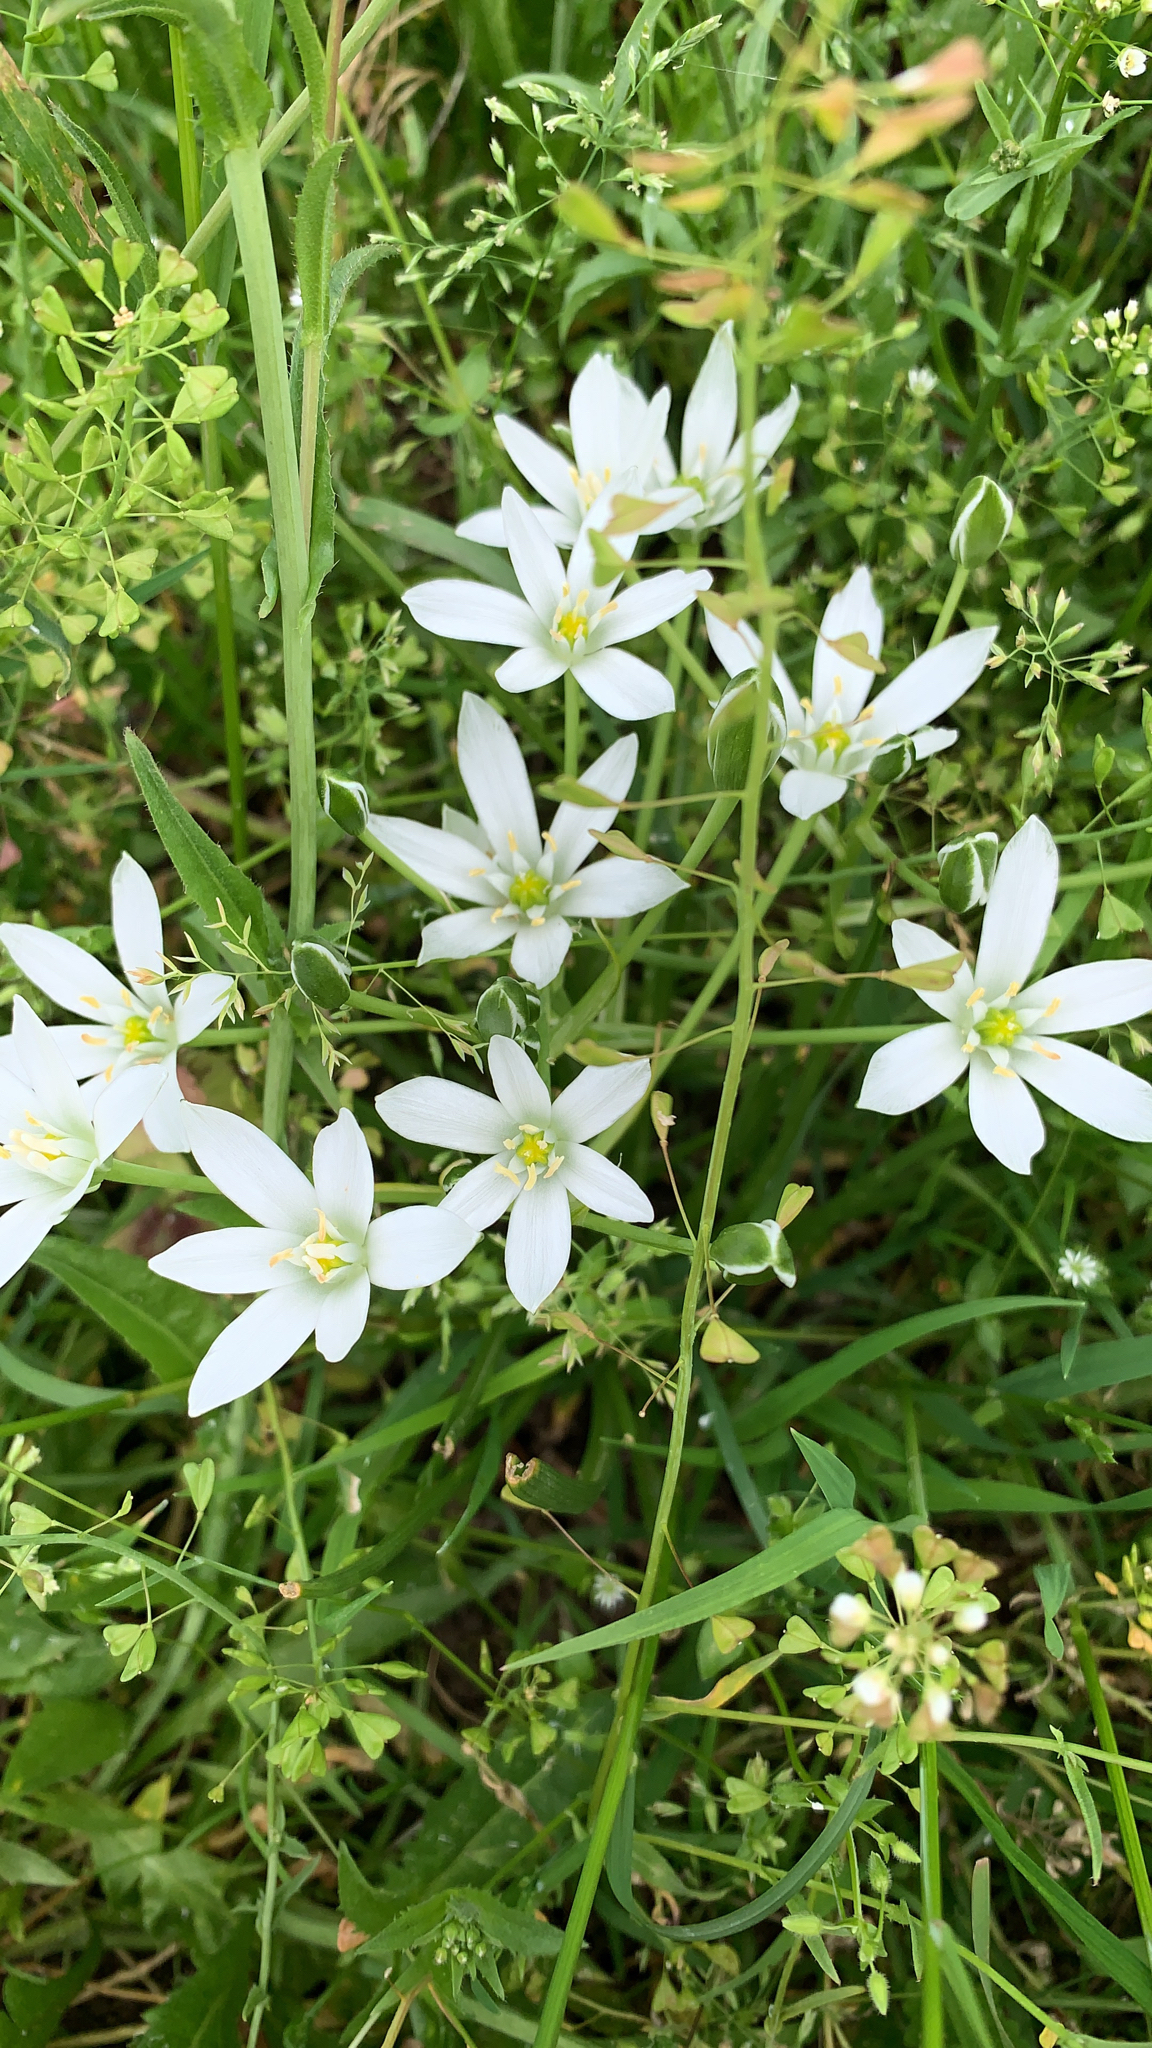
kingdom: Plantae
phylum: Tracheophyta
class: Liliopsida
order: Asparagales
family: Asparagaceae
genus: Ornithogalum
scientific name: Ornithogalum umbellatum
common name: Garden star-of-bethlehem
